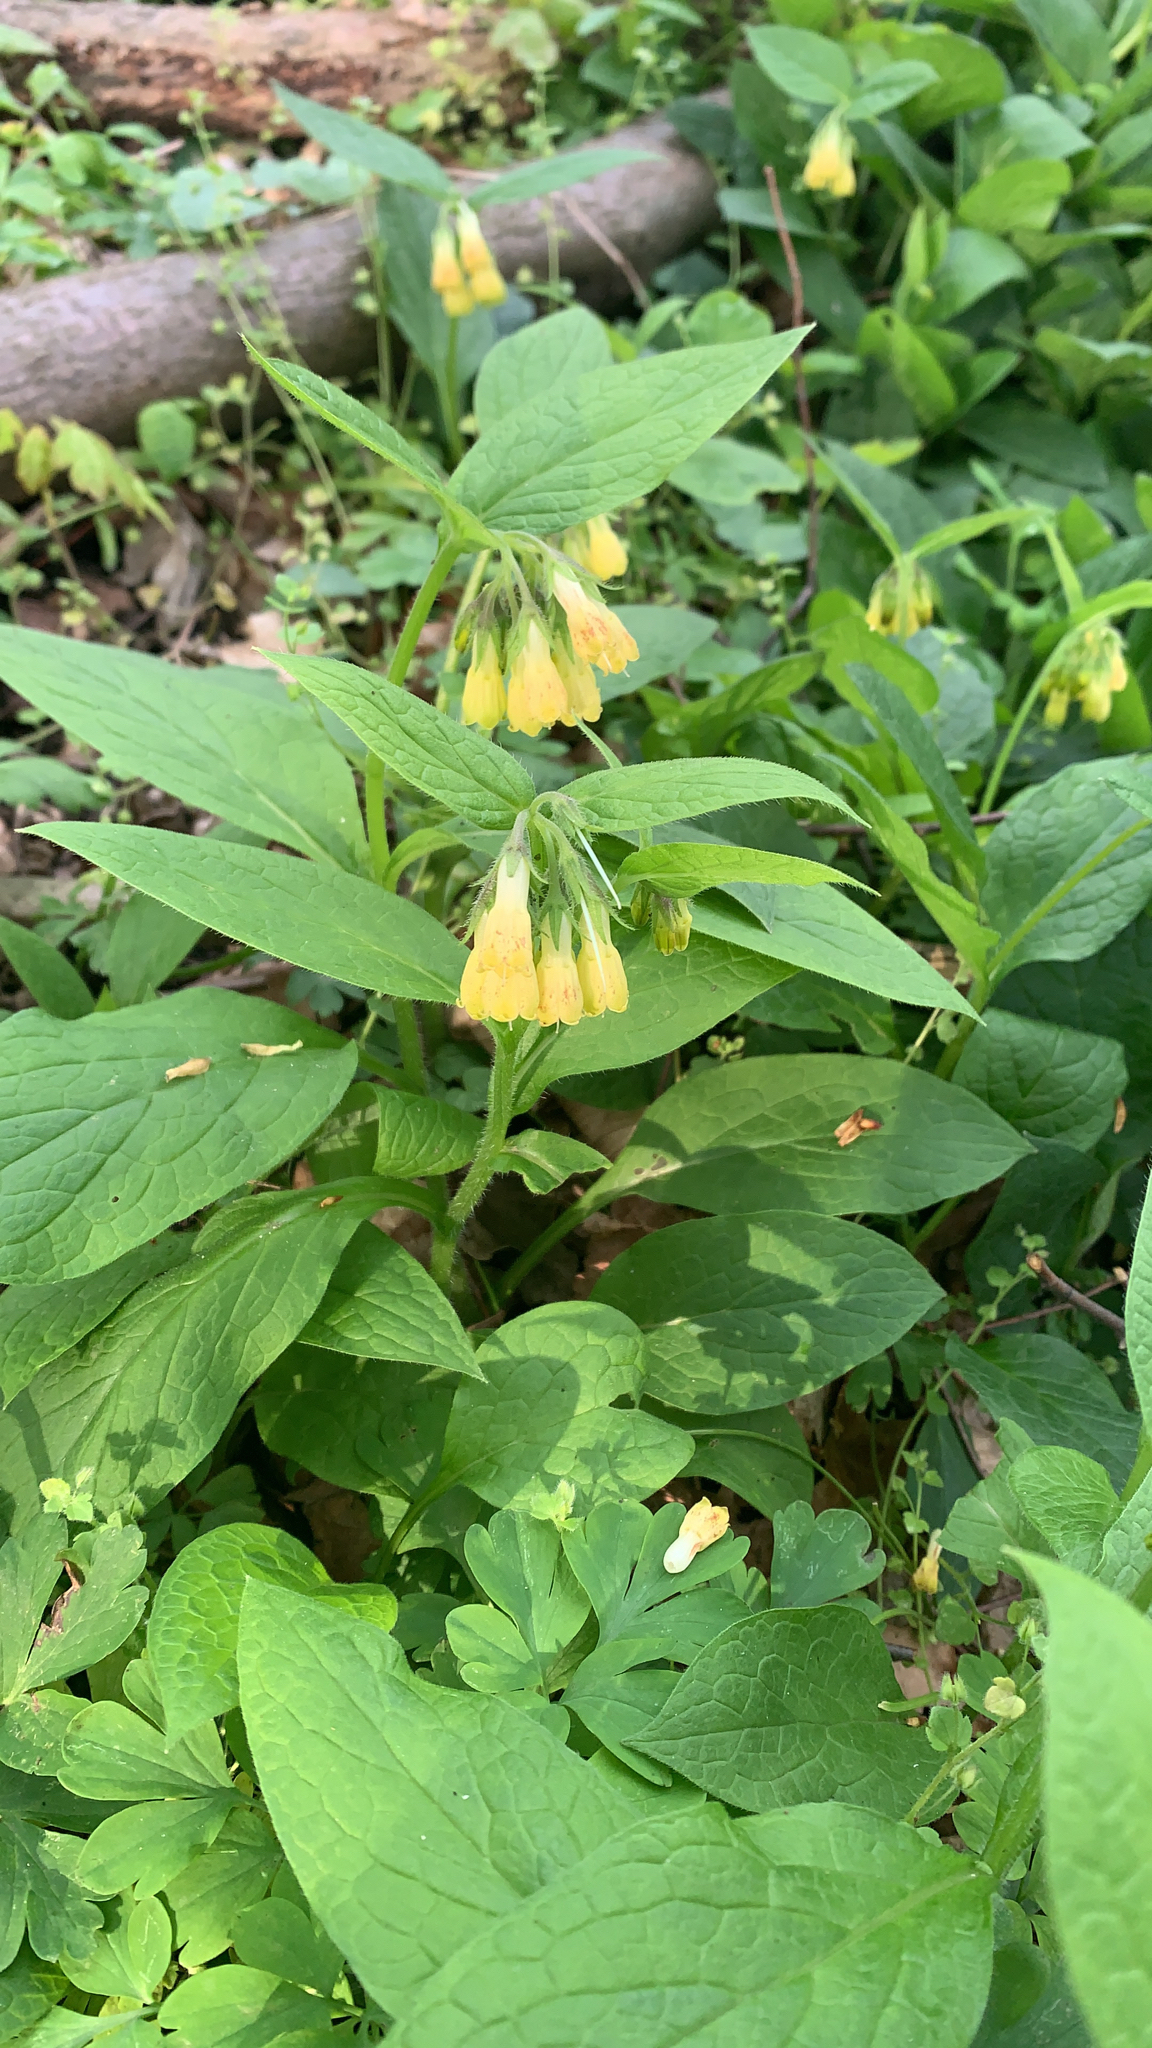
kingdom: Plantae
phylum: Tracheophyta
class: Magnoliopsida
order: Boraginales
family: Boraginaceae
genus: Symphytum
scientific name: Symphytum tuberosum
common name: Tuberous comfrey
